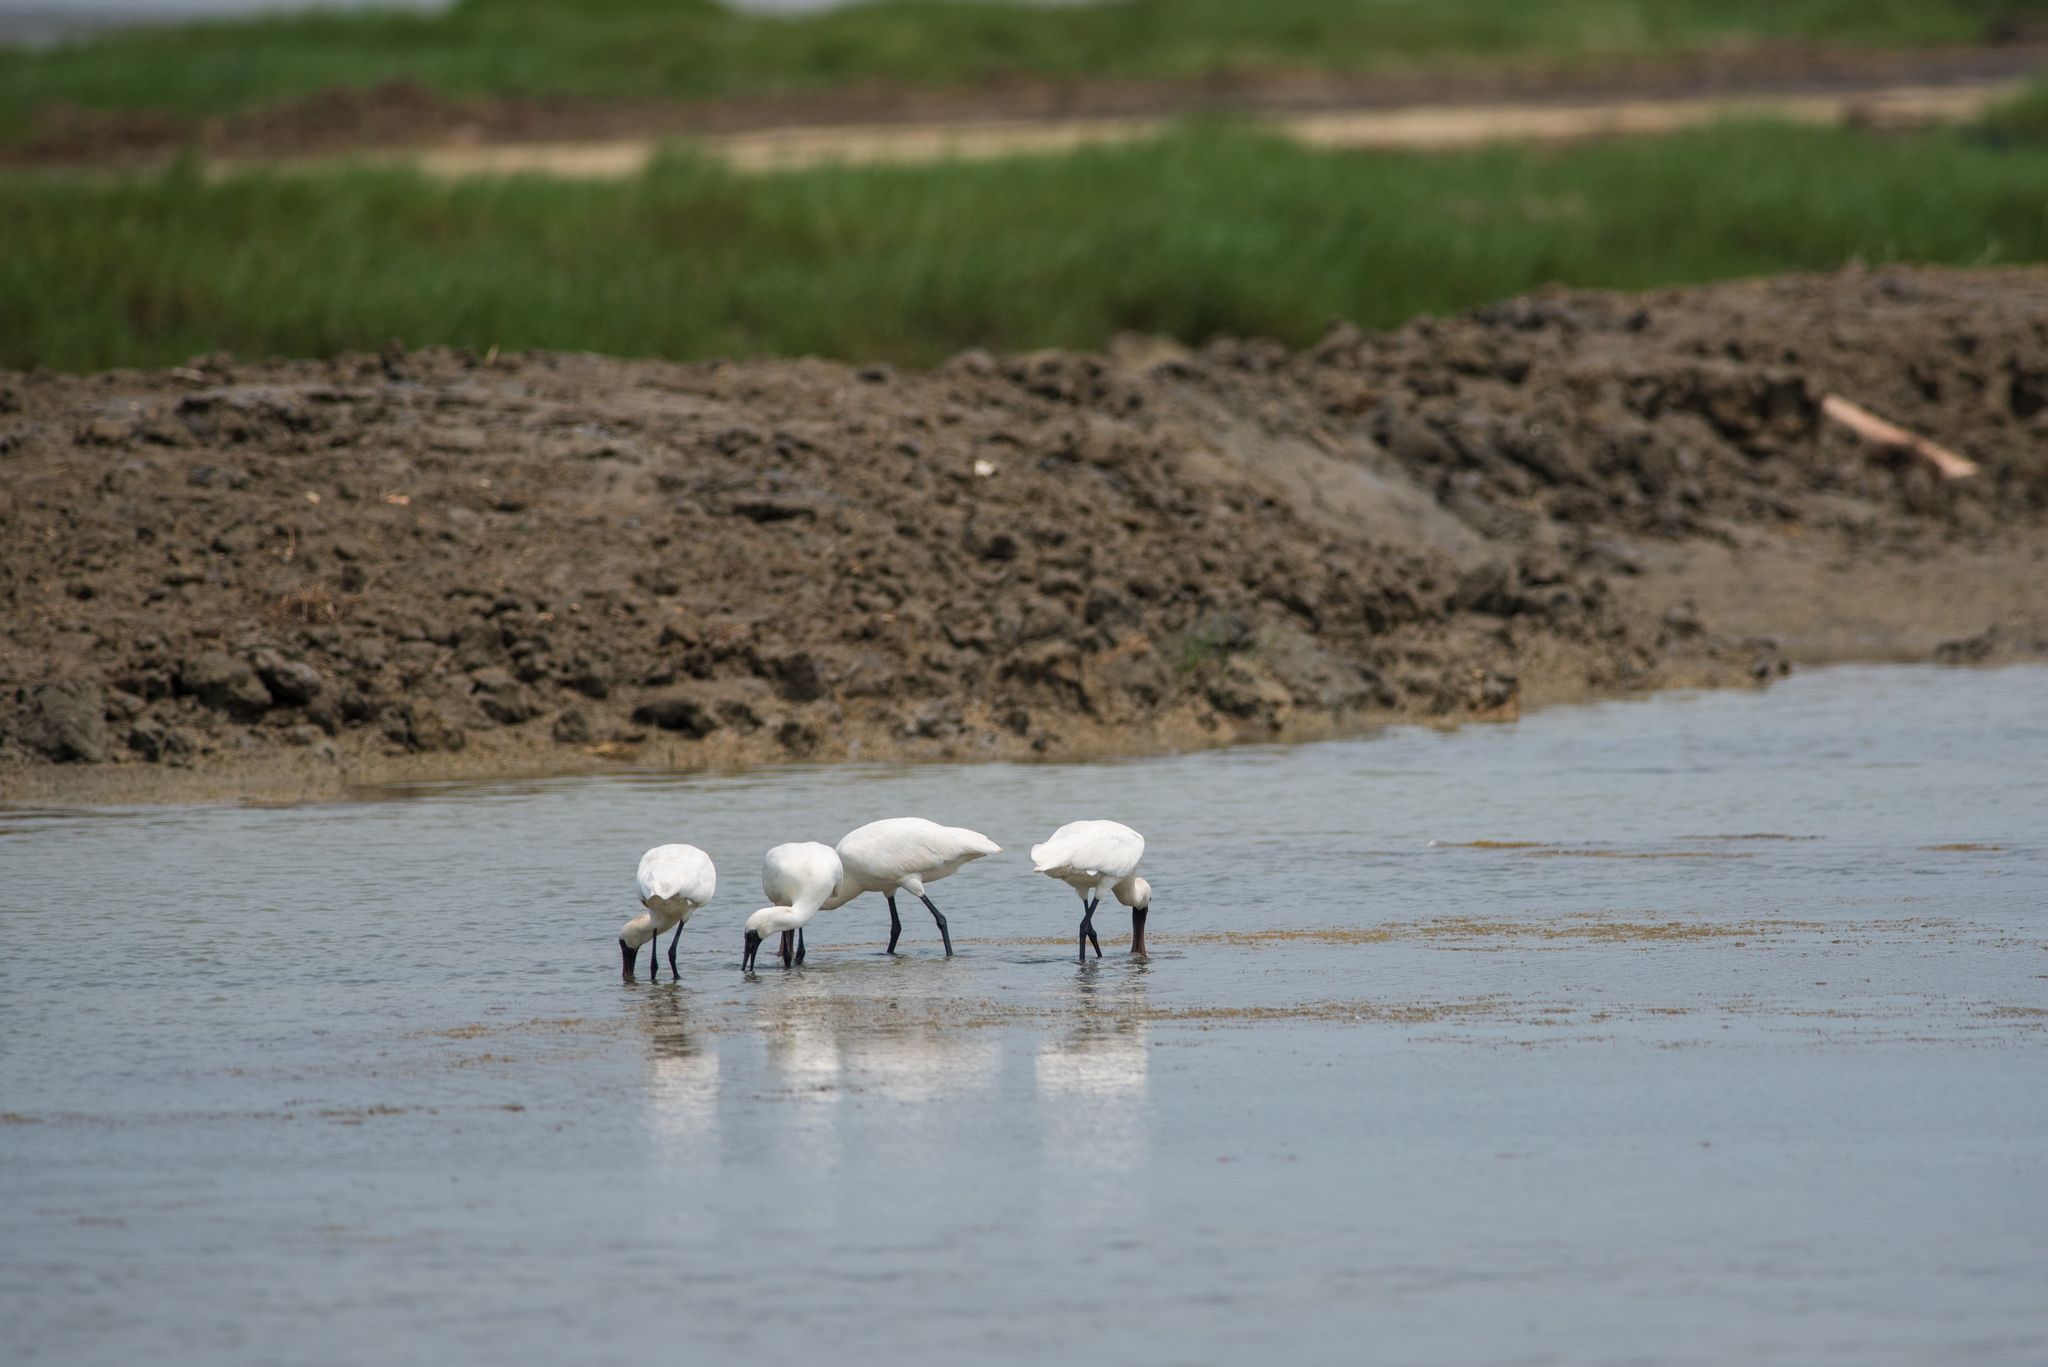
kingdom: Animalia
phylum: Chordata
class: Aves
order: Pelecaniformes
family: Threskiornithidae
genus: Platalea
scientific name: Platalea minor
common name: Black-faced spoonbill
